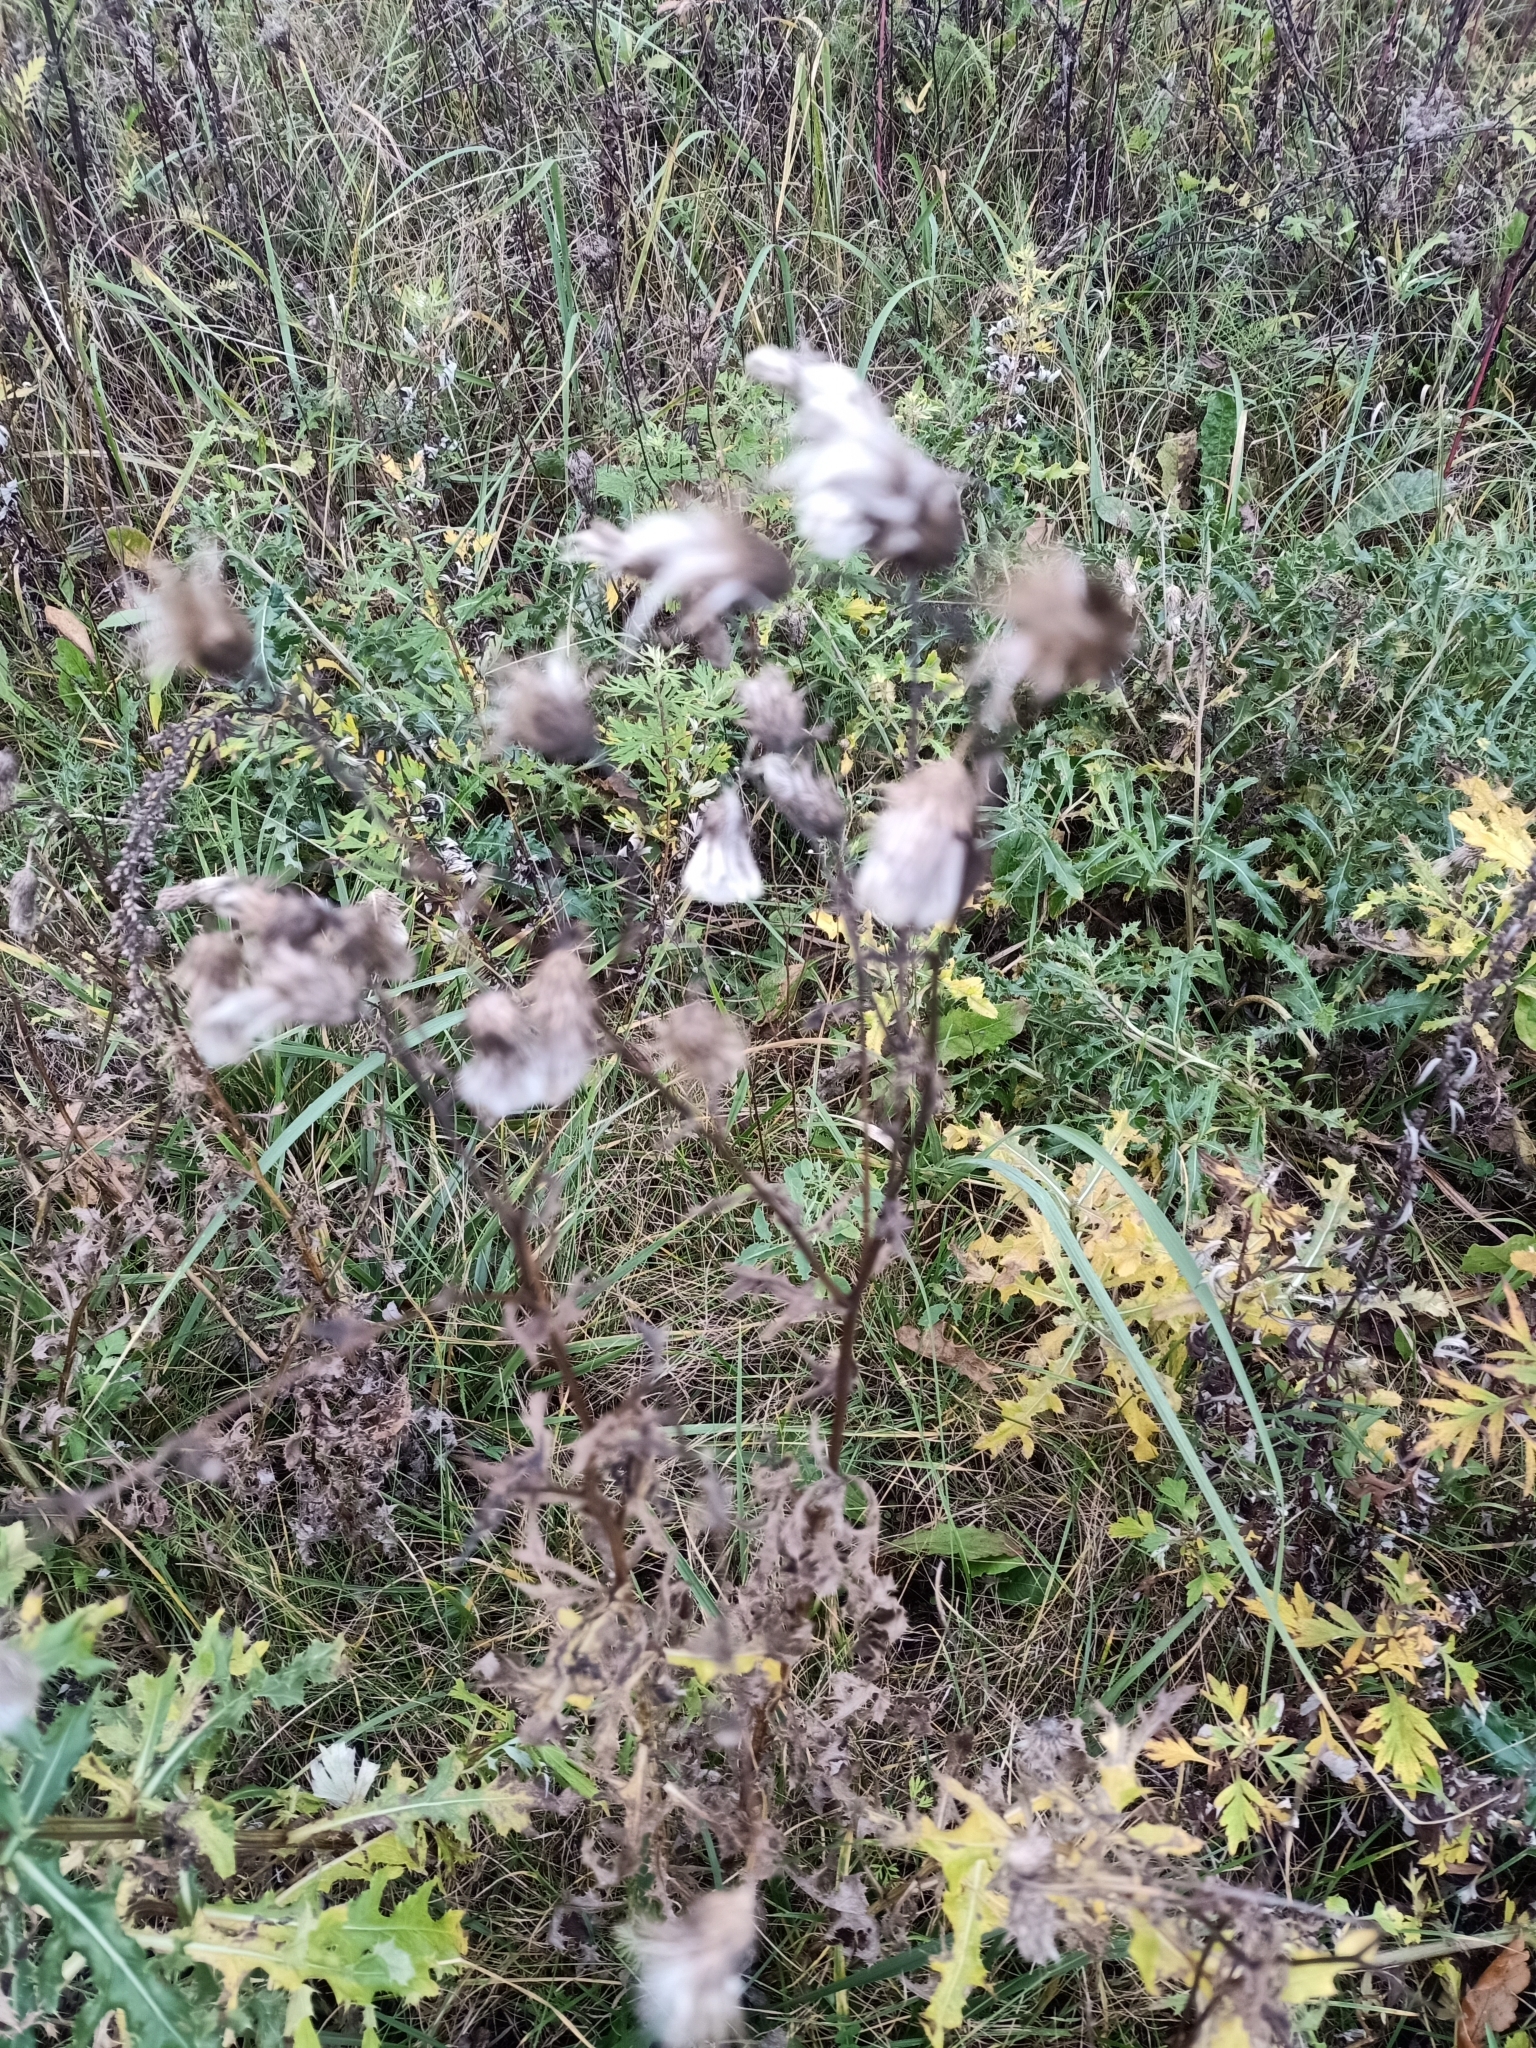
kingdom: Plantae
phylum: Tracheophyta
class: Magnoliopsida
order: Asterales
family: Asteraceae
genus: Cirsium
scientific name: Cirsium arvense
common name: Creeping thistle
